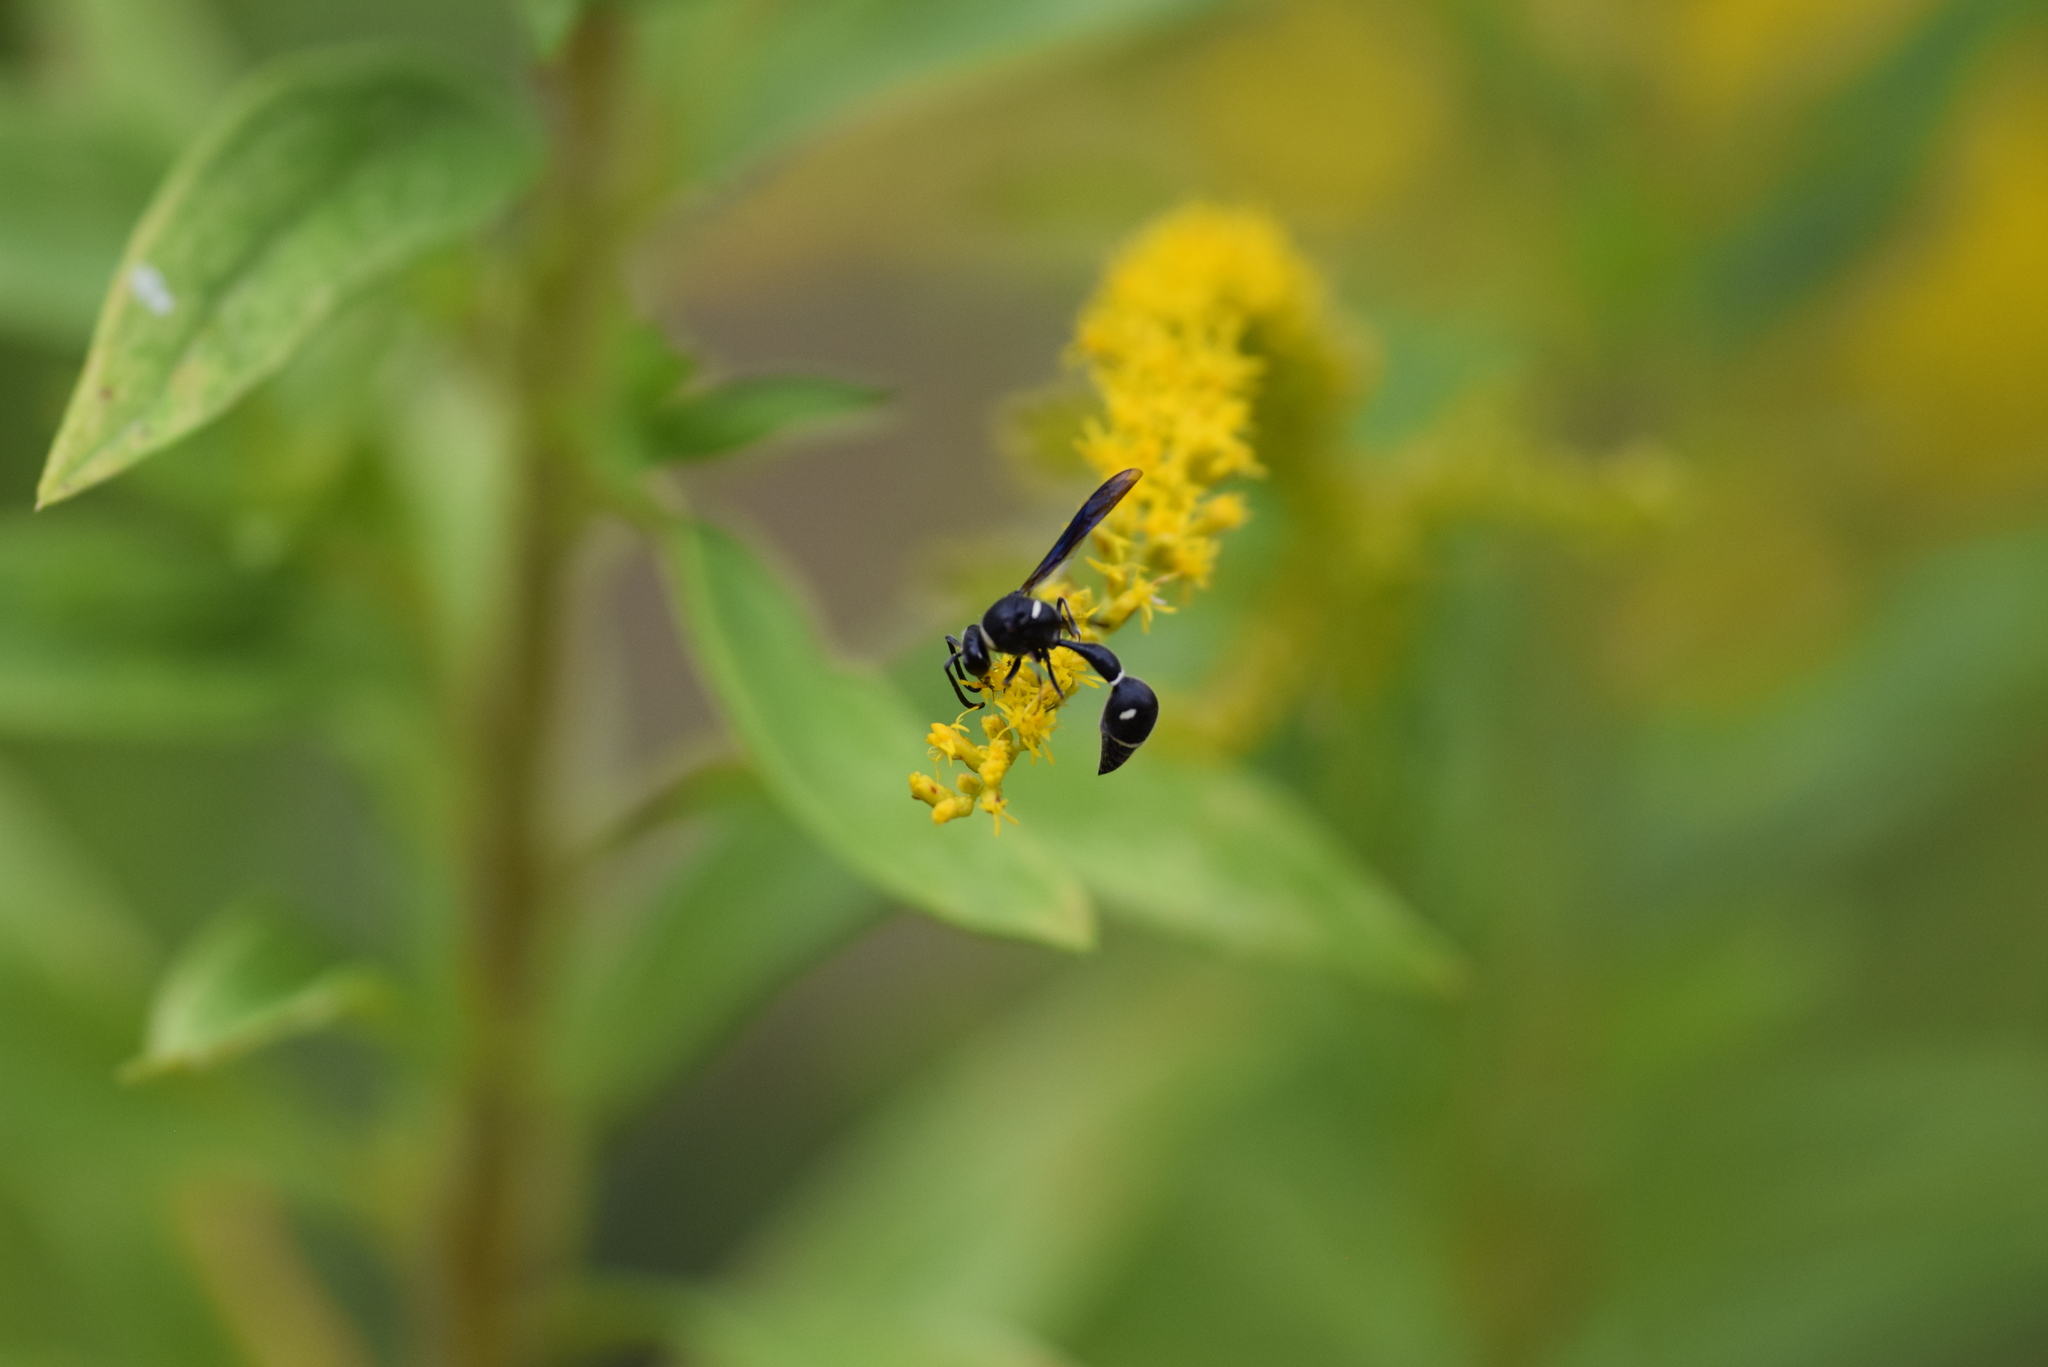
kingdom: Animalia
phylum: Arthropoda
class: Insecta
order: Hymenoptera
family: Vespidae
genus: Eumenes
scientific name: Eumenes fraternus
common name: Fraternal potter wasp
